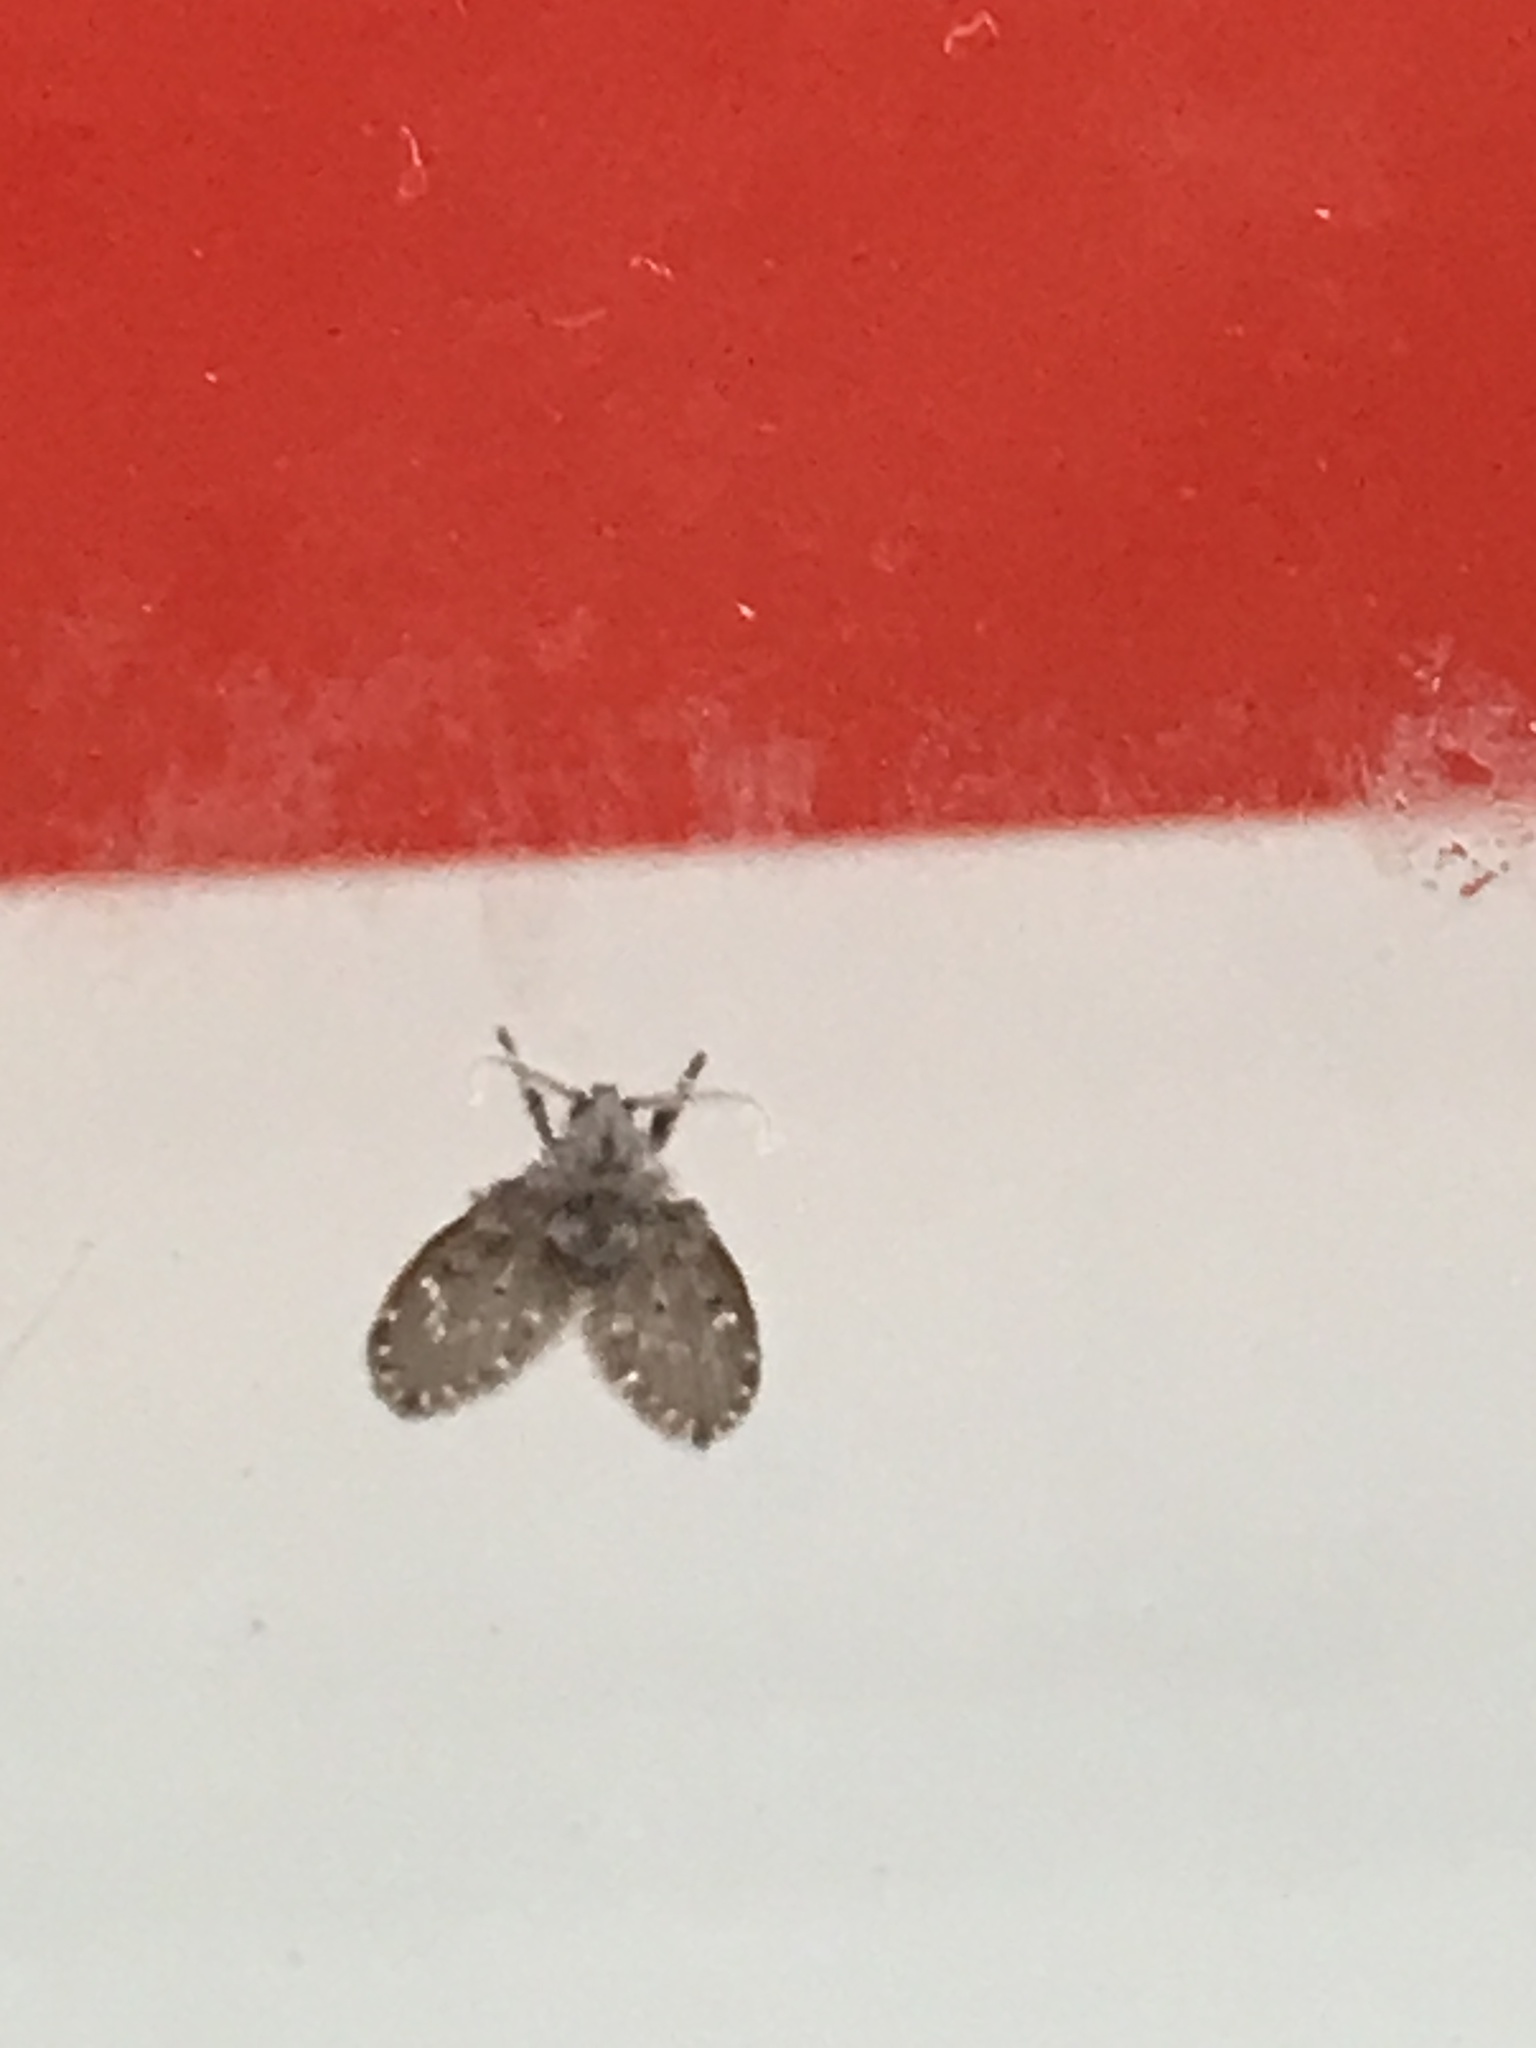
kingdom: Animalia
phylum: Arthropoda
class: Insecta
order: Diptera
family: Psychodidae
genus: Clogmia
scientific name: Clogmia albipunctatus
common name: White-spotted moth fly
